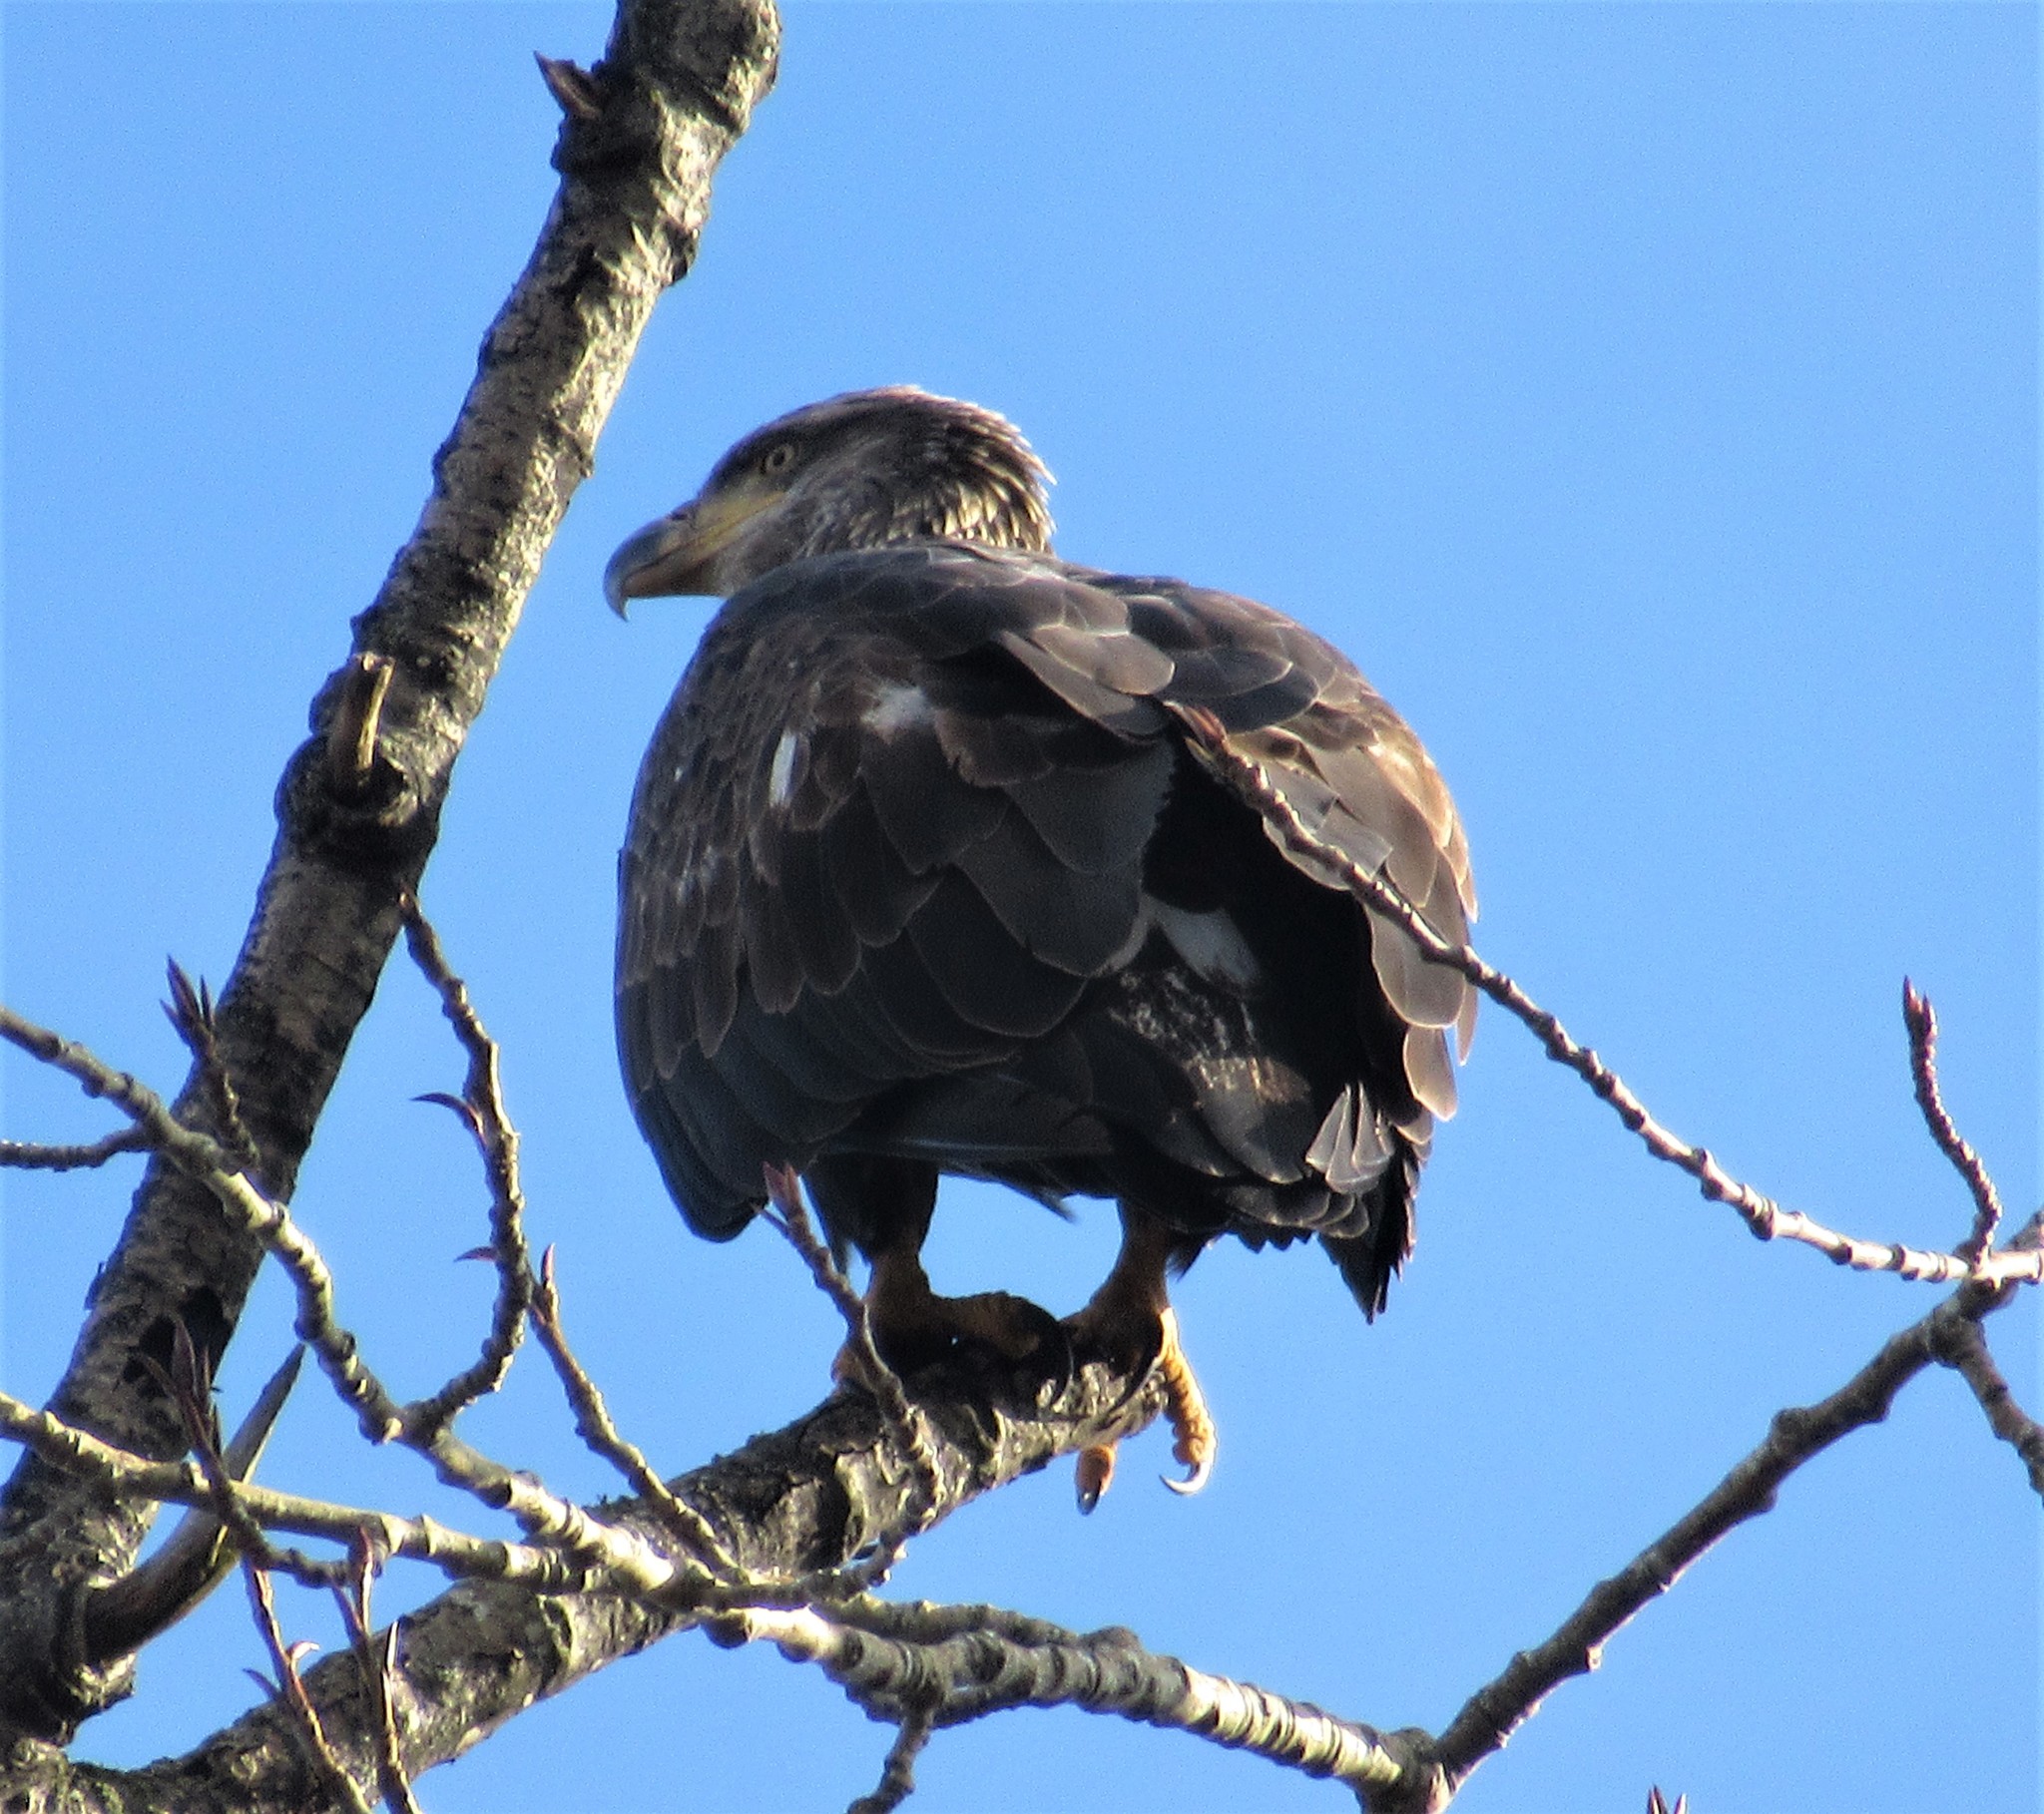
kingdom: Animalia
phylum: Chordata
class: Aves
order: Accipitriformes
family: Accipitridae
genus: Haliaeetus
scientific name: Haliaeetus leucocephalus
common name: Bald eagle
